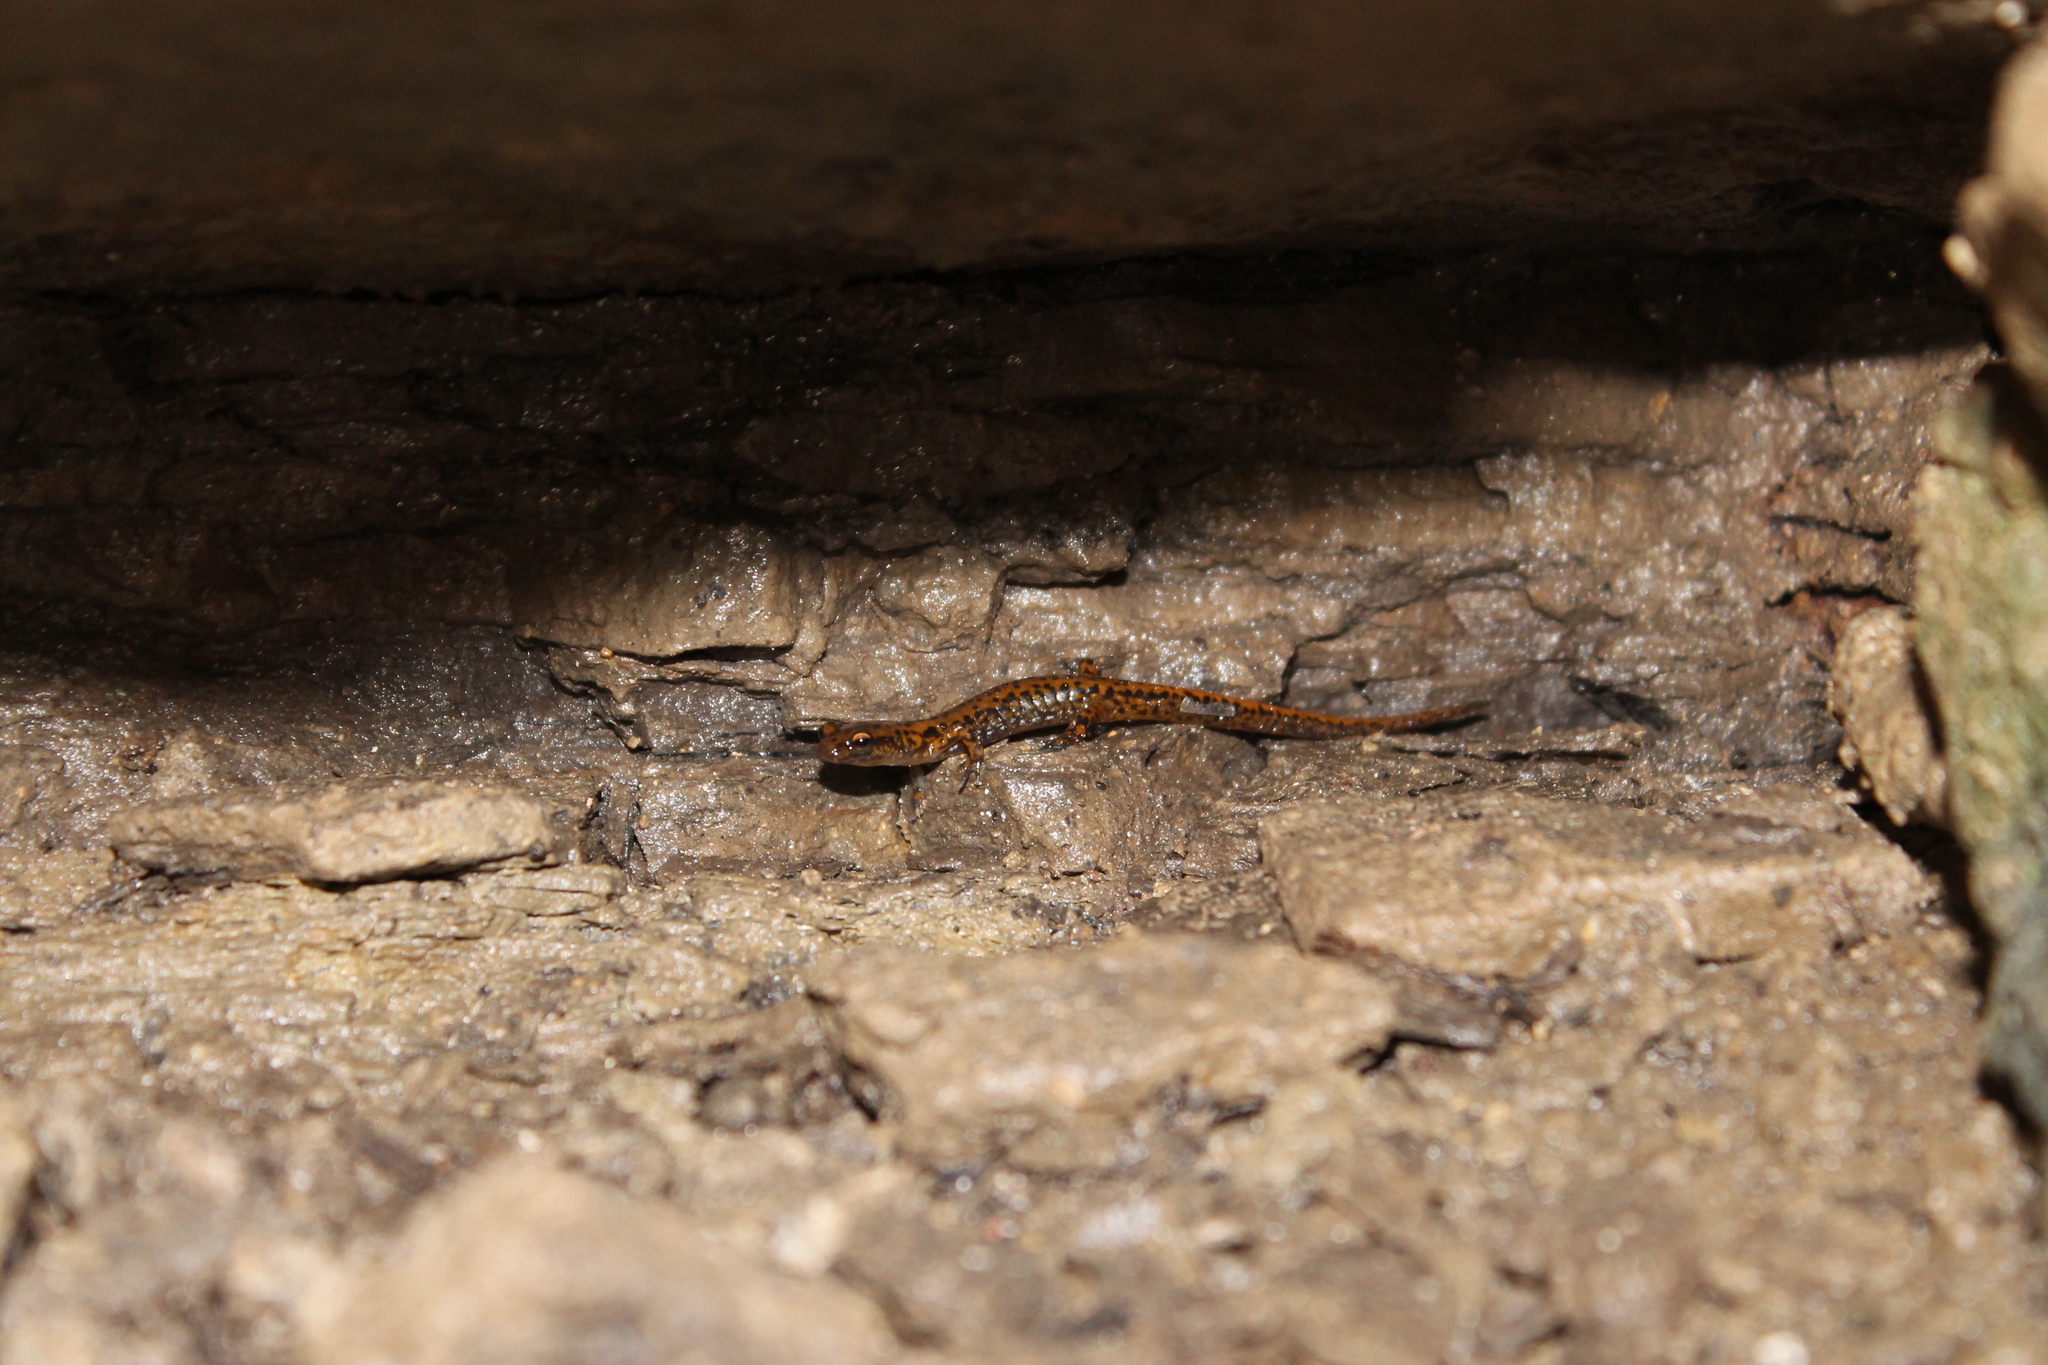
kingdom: Animalia
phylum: Chordata
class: Amphibia
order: Caudata
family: Plethodontidae
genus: Eurycea
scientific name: Eurycea lucifuga
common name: Cave salamander
